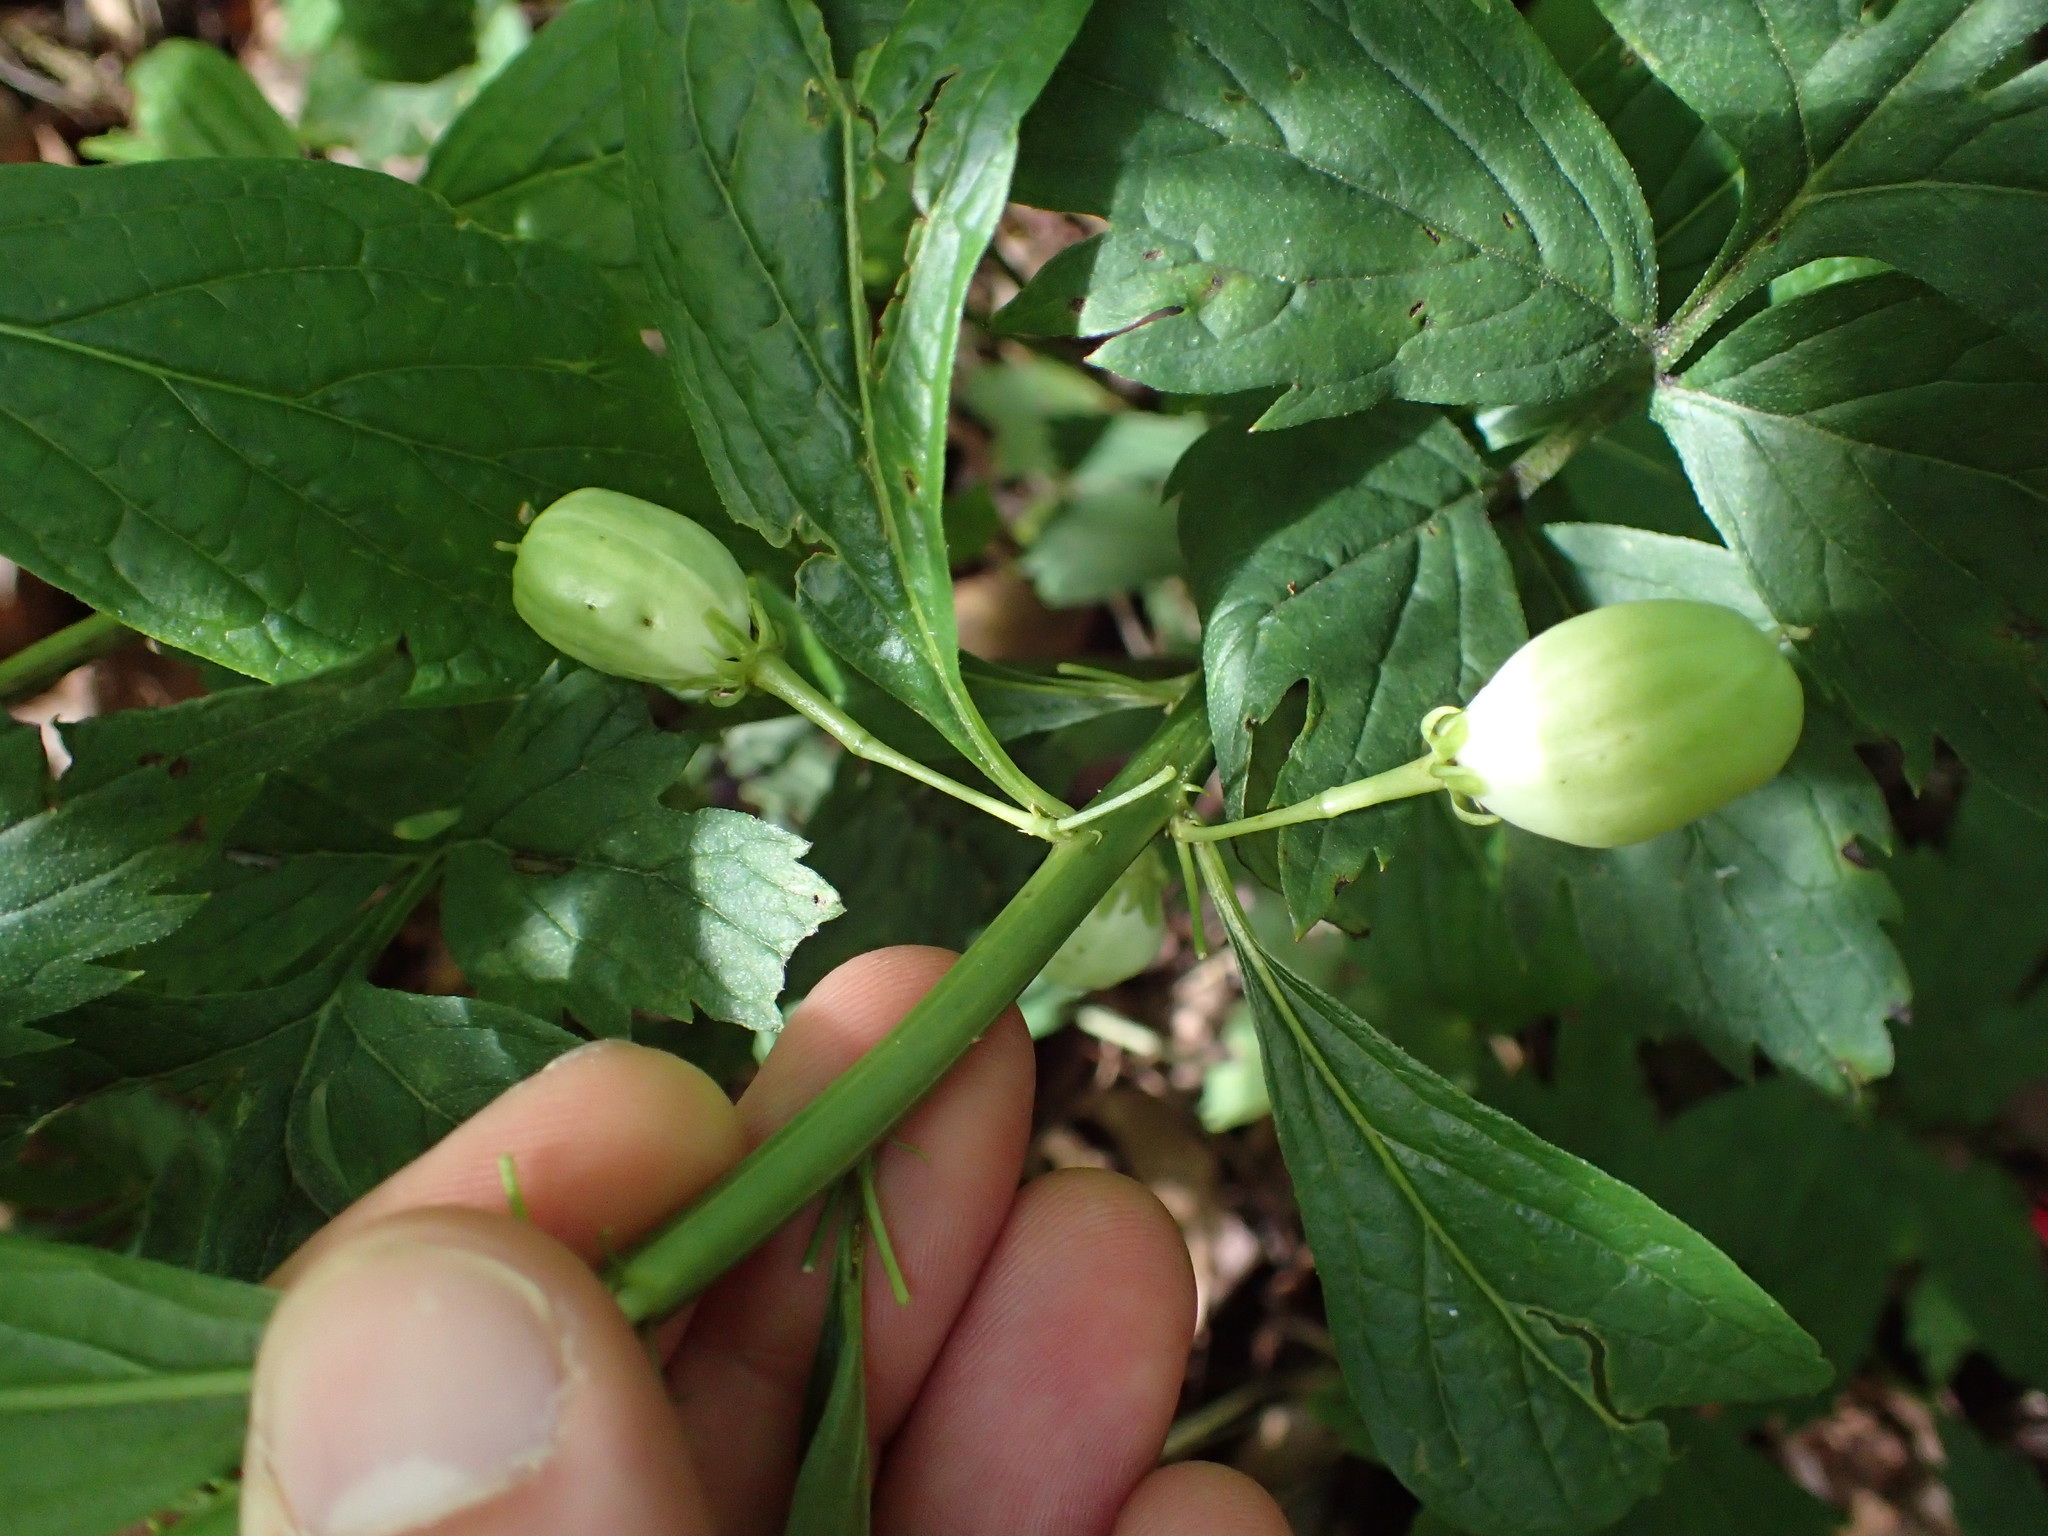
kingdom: Plantae
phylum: Tracheophyta
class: Magnoliopsida
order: Malpighiales
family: Violaceae
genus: Cubelium
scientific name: Cubelium concolor
